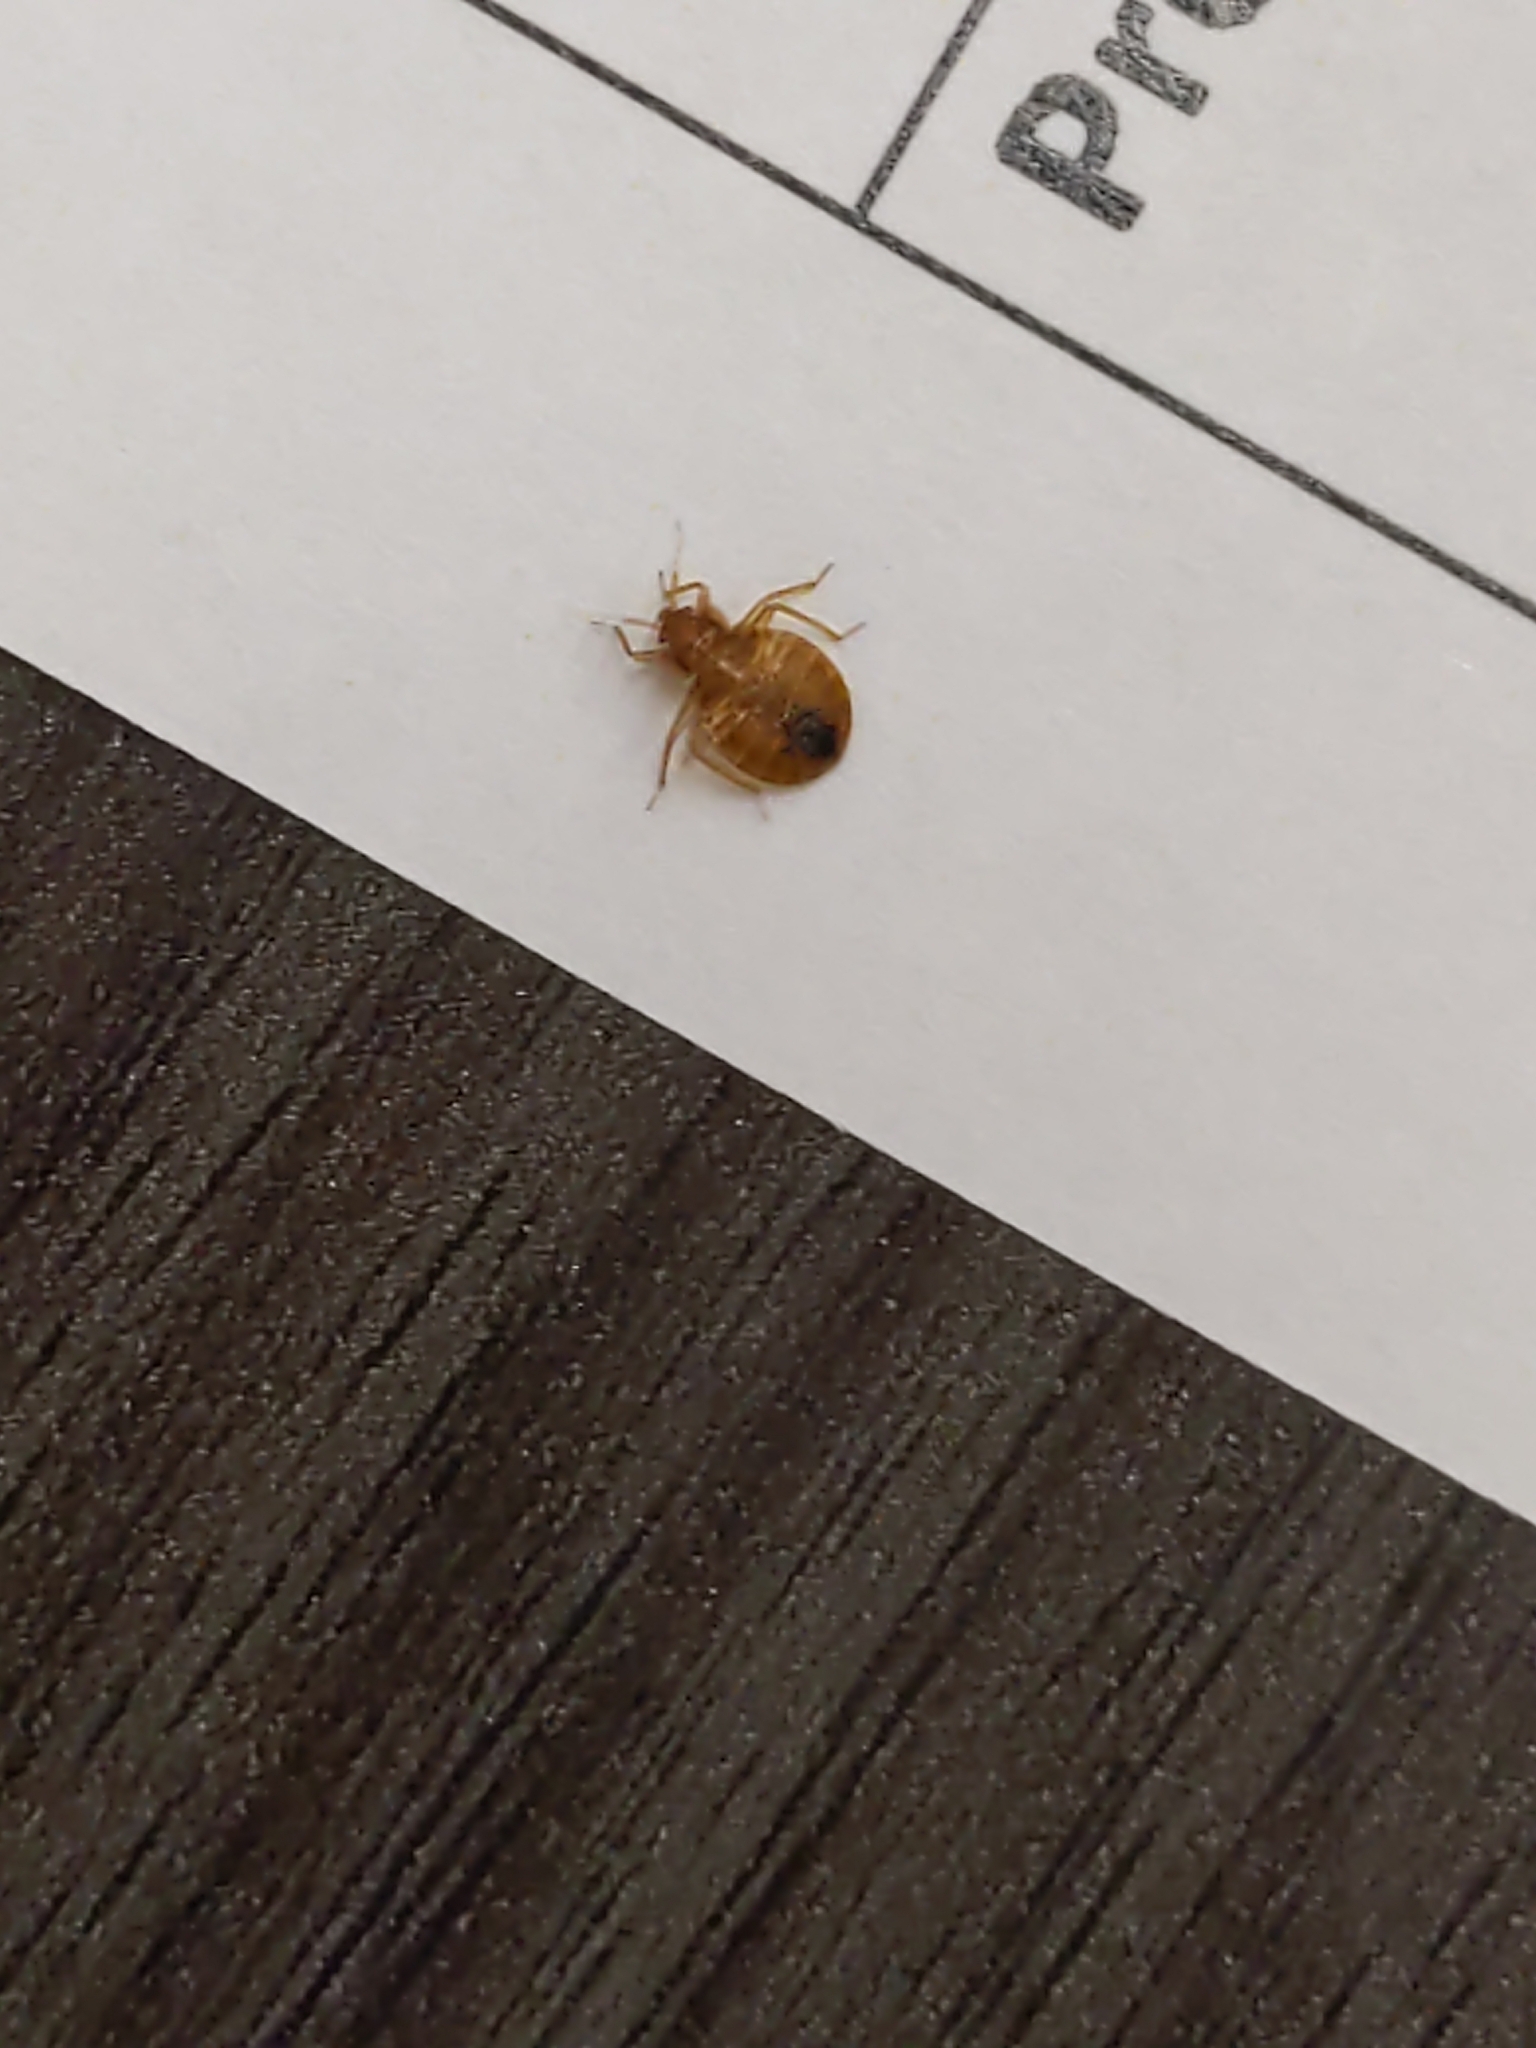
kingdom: Animalia
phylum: Arthropoda
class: Insecta
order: Hemiptera
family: Cimicidae
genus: Cimex
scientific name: Cimex lectularius
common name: Bed bug
